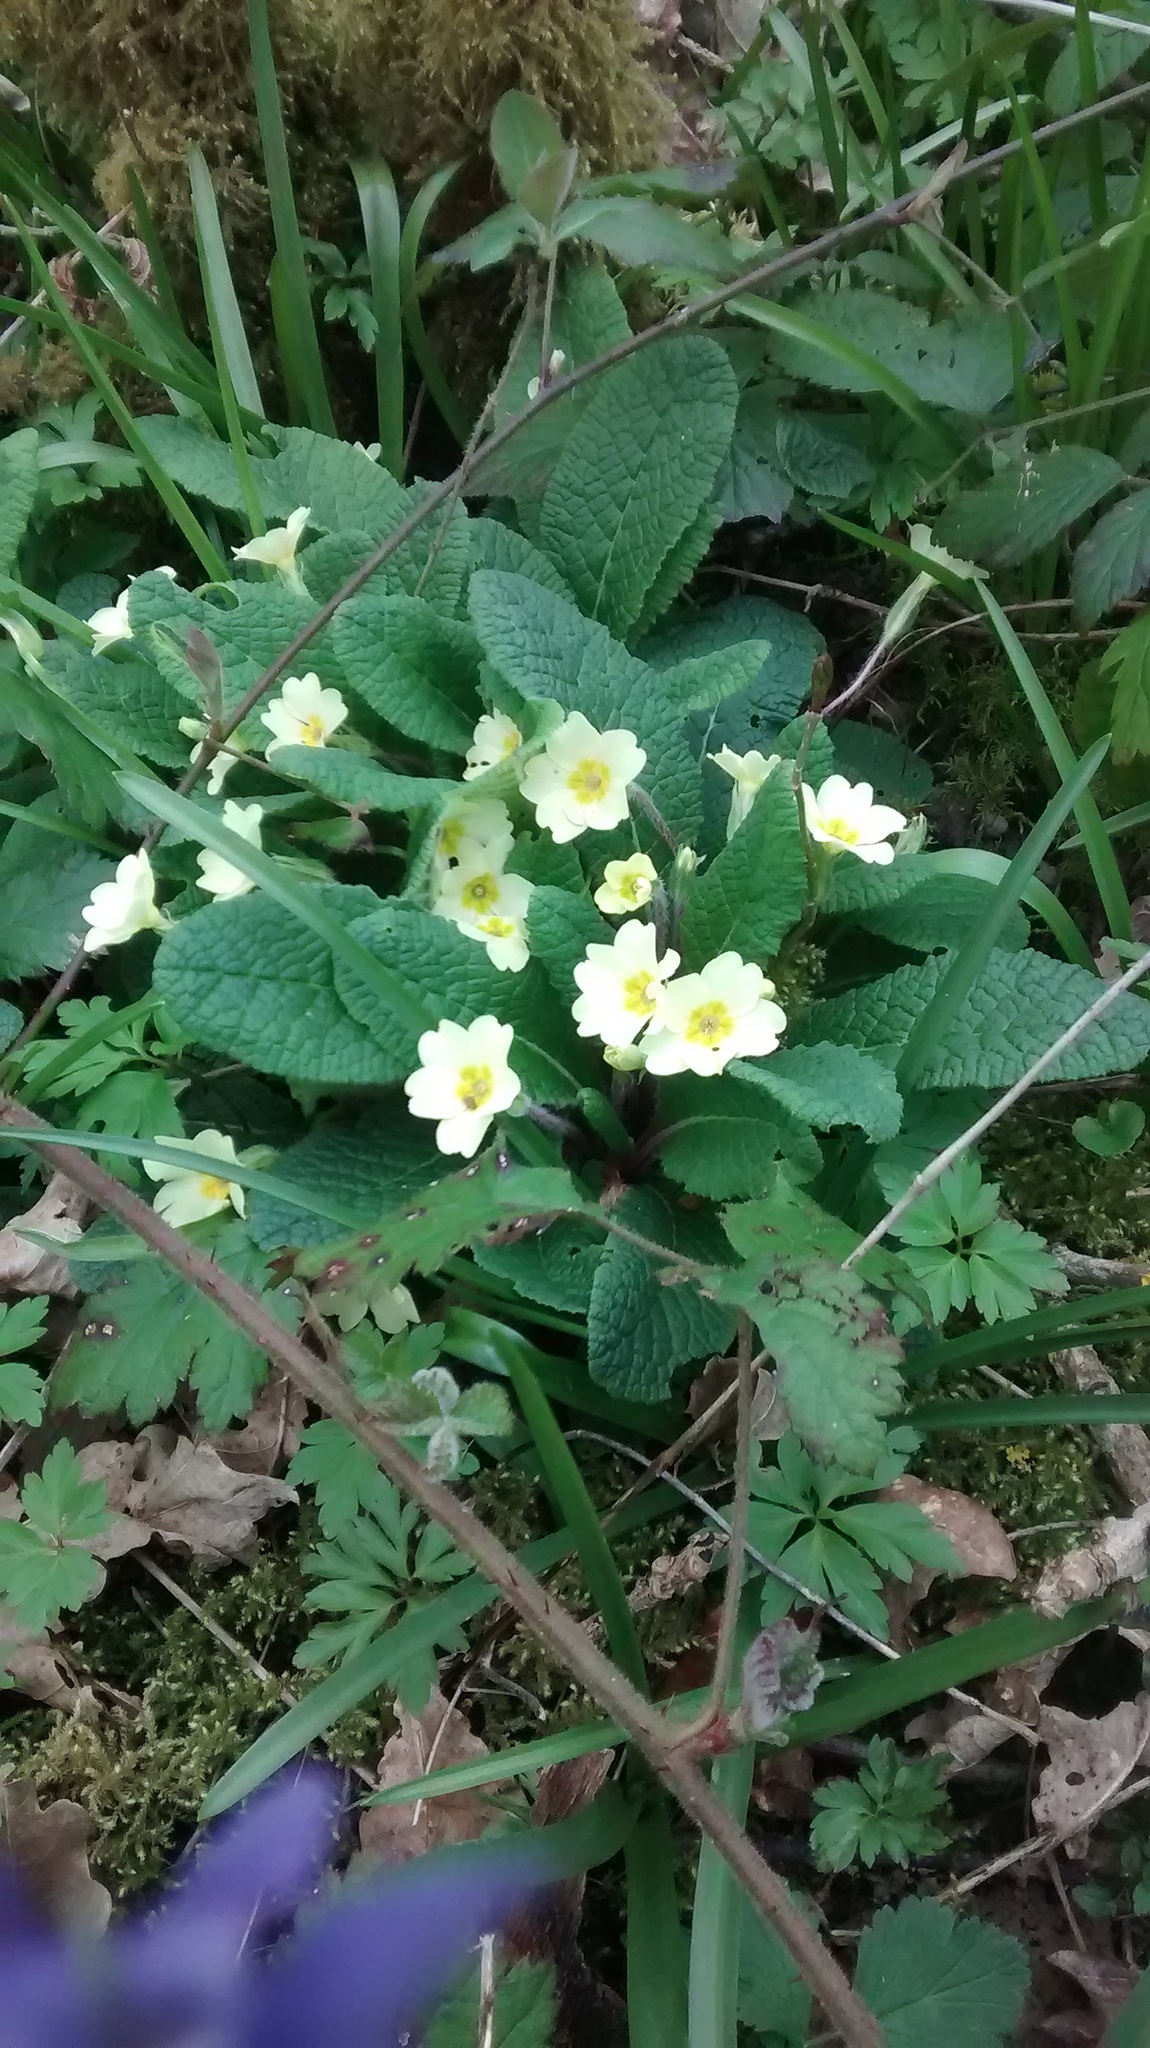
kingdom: Plantae
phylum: Tracheophyta
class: Magnoliopsida
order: Ericales
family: Primulaceae
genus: Primula
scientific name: Primula vulgaris
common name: Primrose
